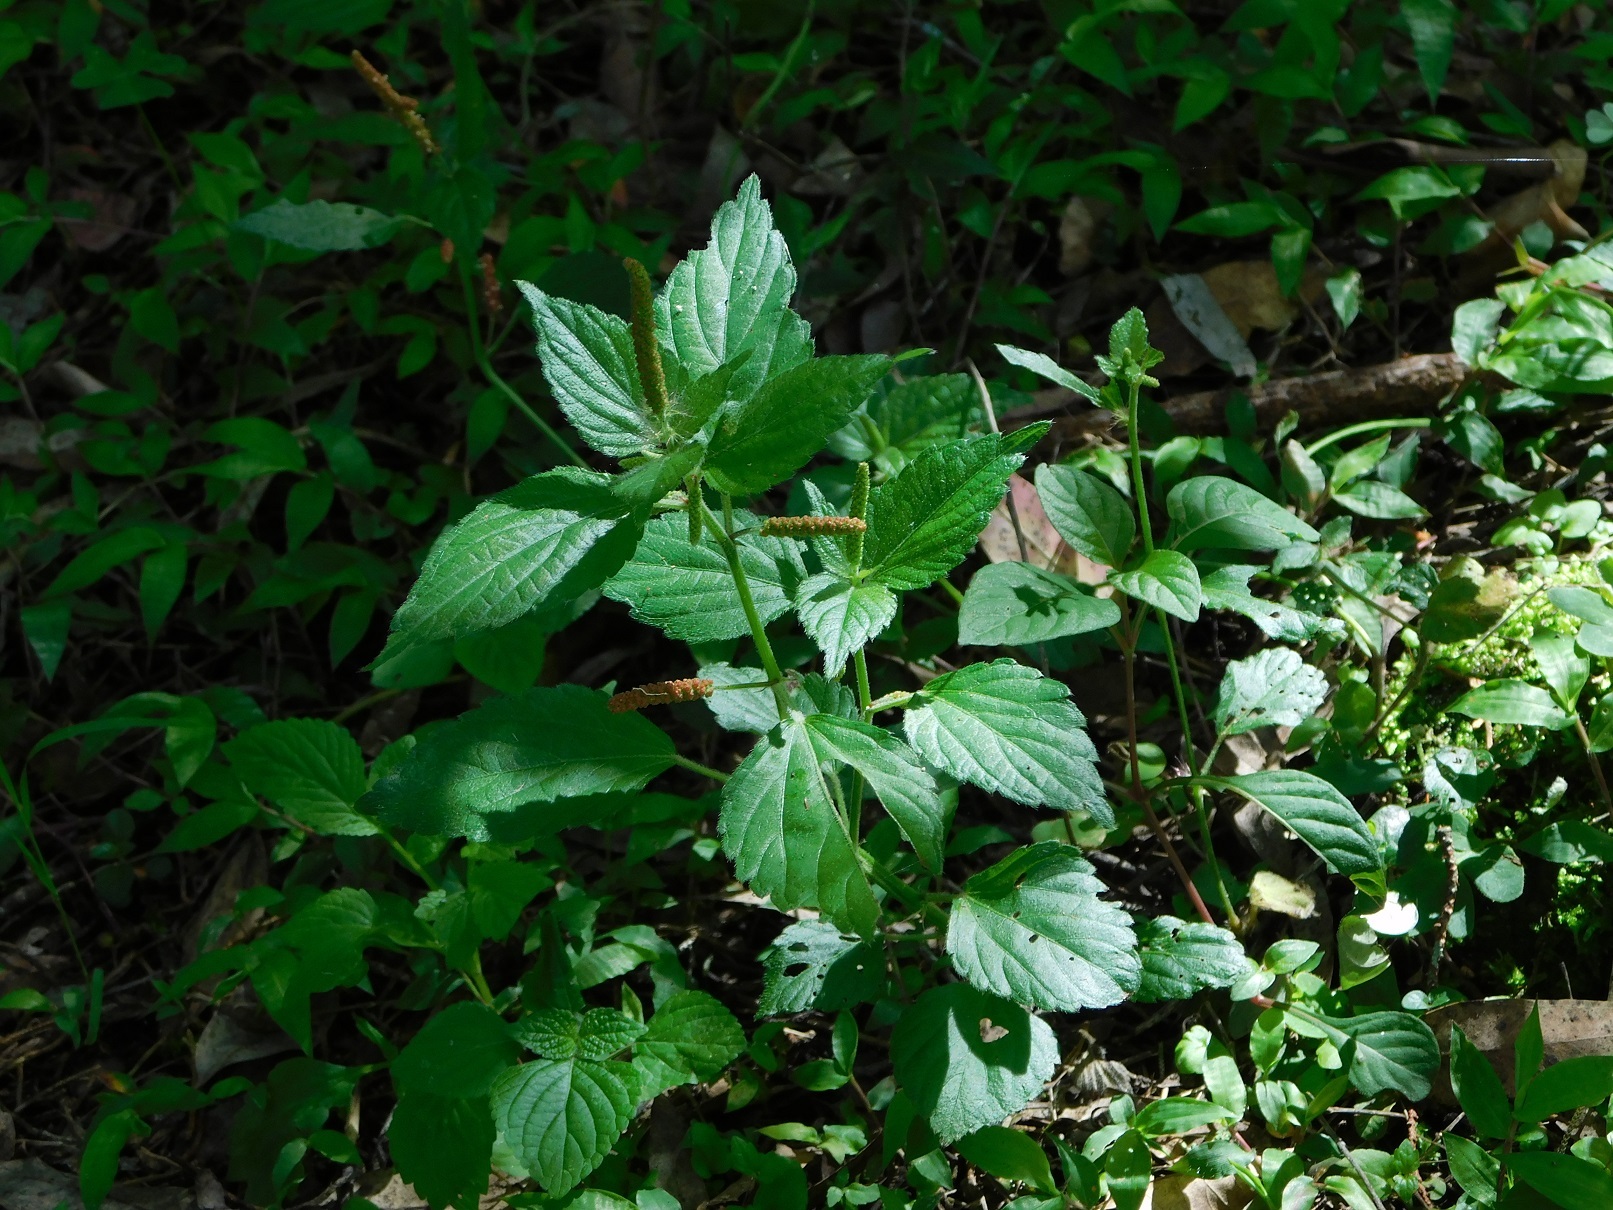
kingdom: Plantae
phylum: Tracheophyta
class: Magnoliopsida
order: Malpighiales
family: Euphorbiaceae
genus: Acalypha
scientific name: Acalypha phleoides
